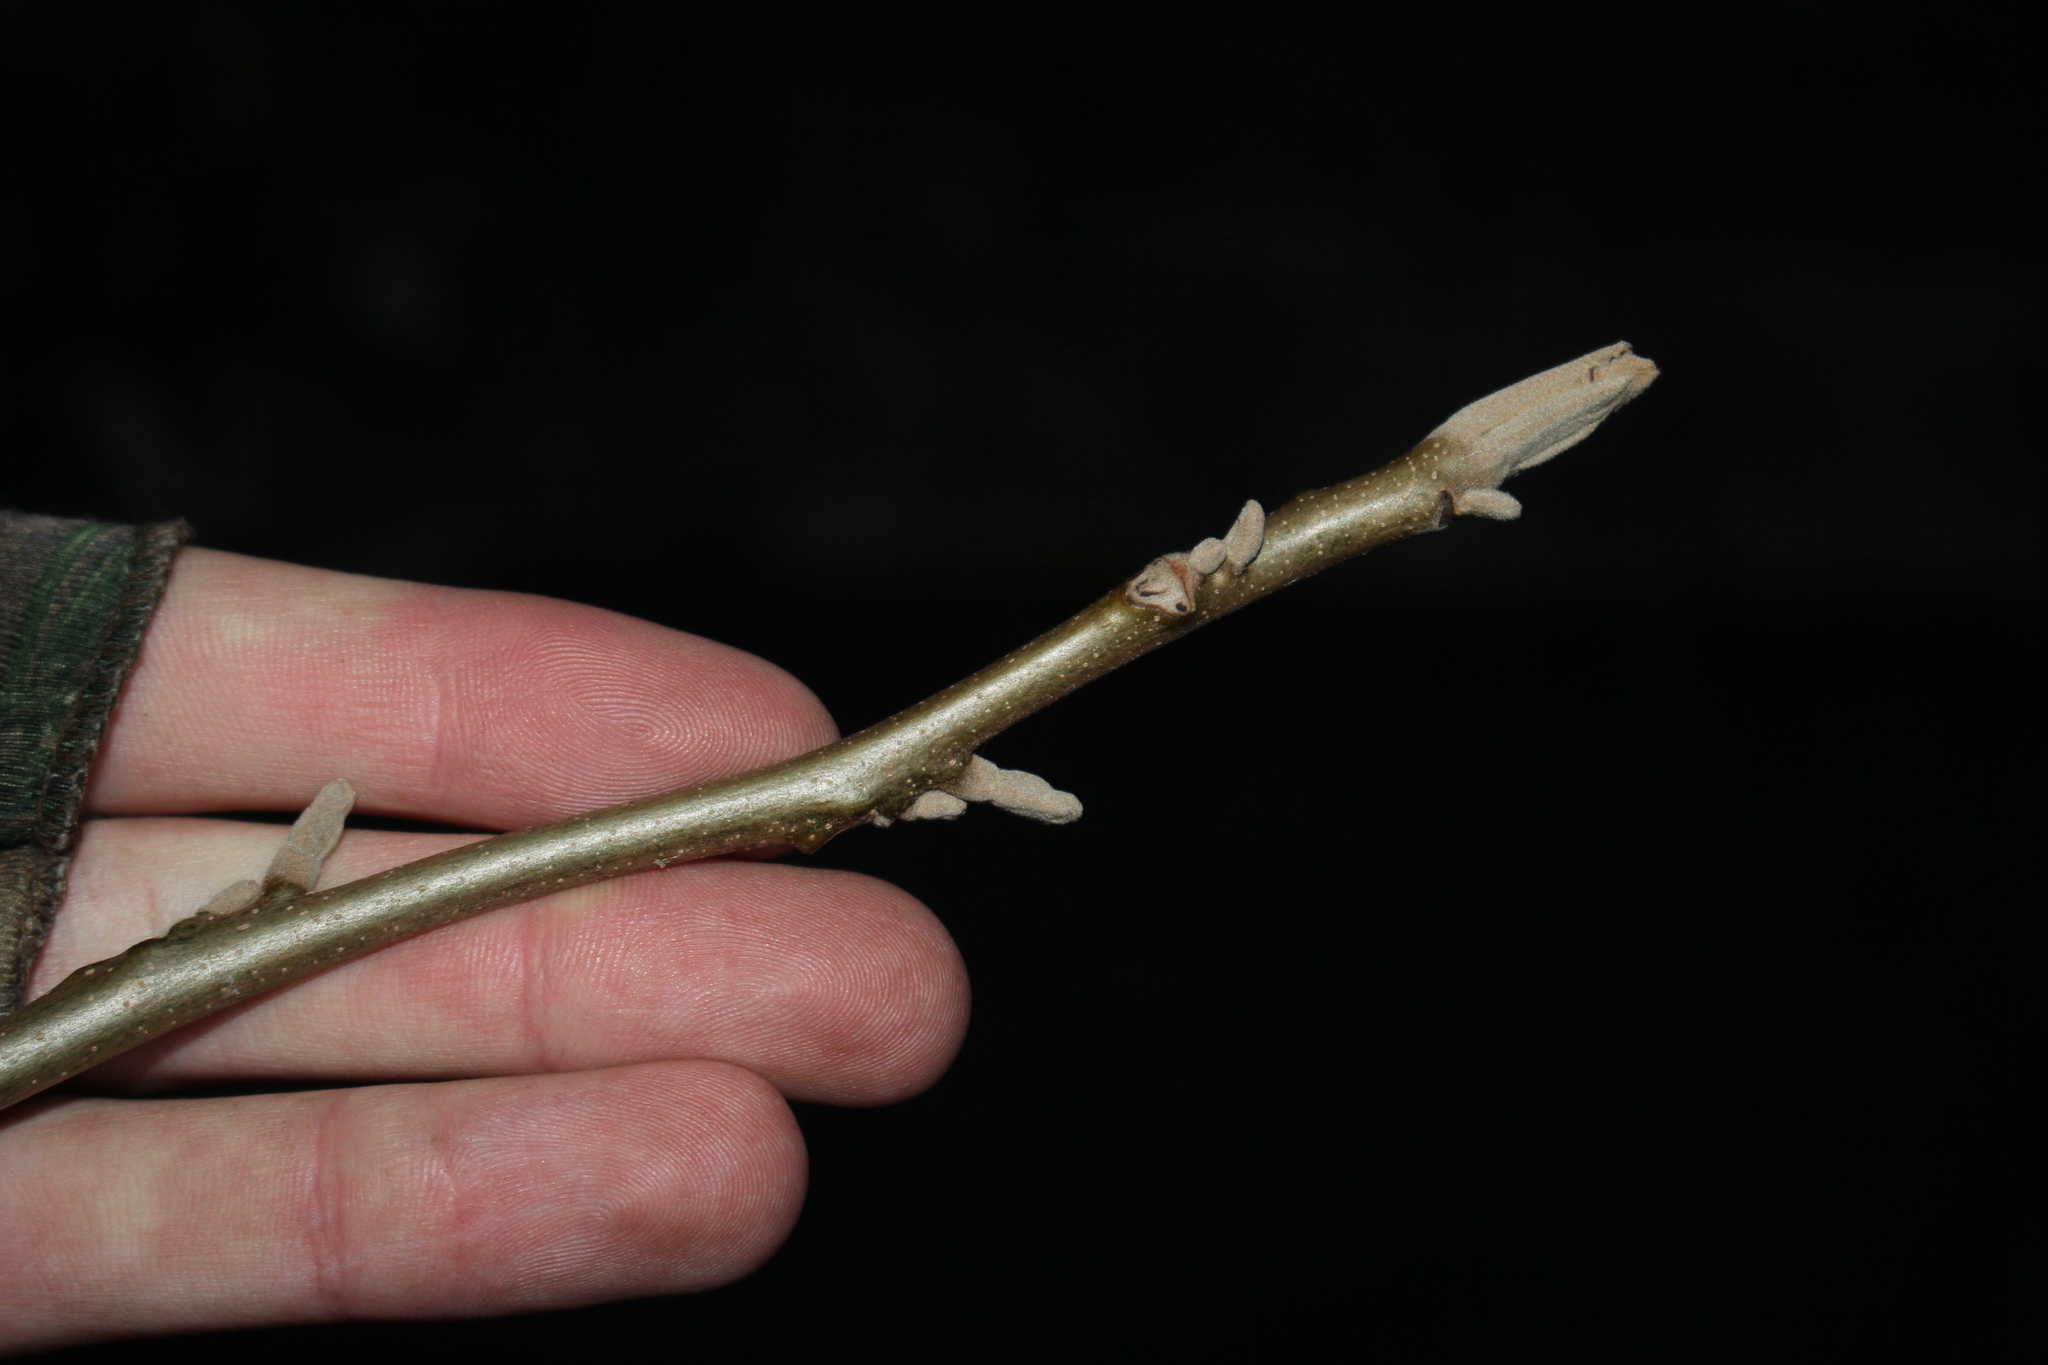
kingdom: Plantae
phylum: Tracheophyta
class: Magnoliopsida
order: Fagales
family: Juglandaceae
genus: Juglans
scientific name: Juglans nigra
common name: Black walnut
